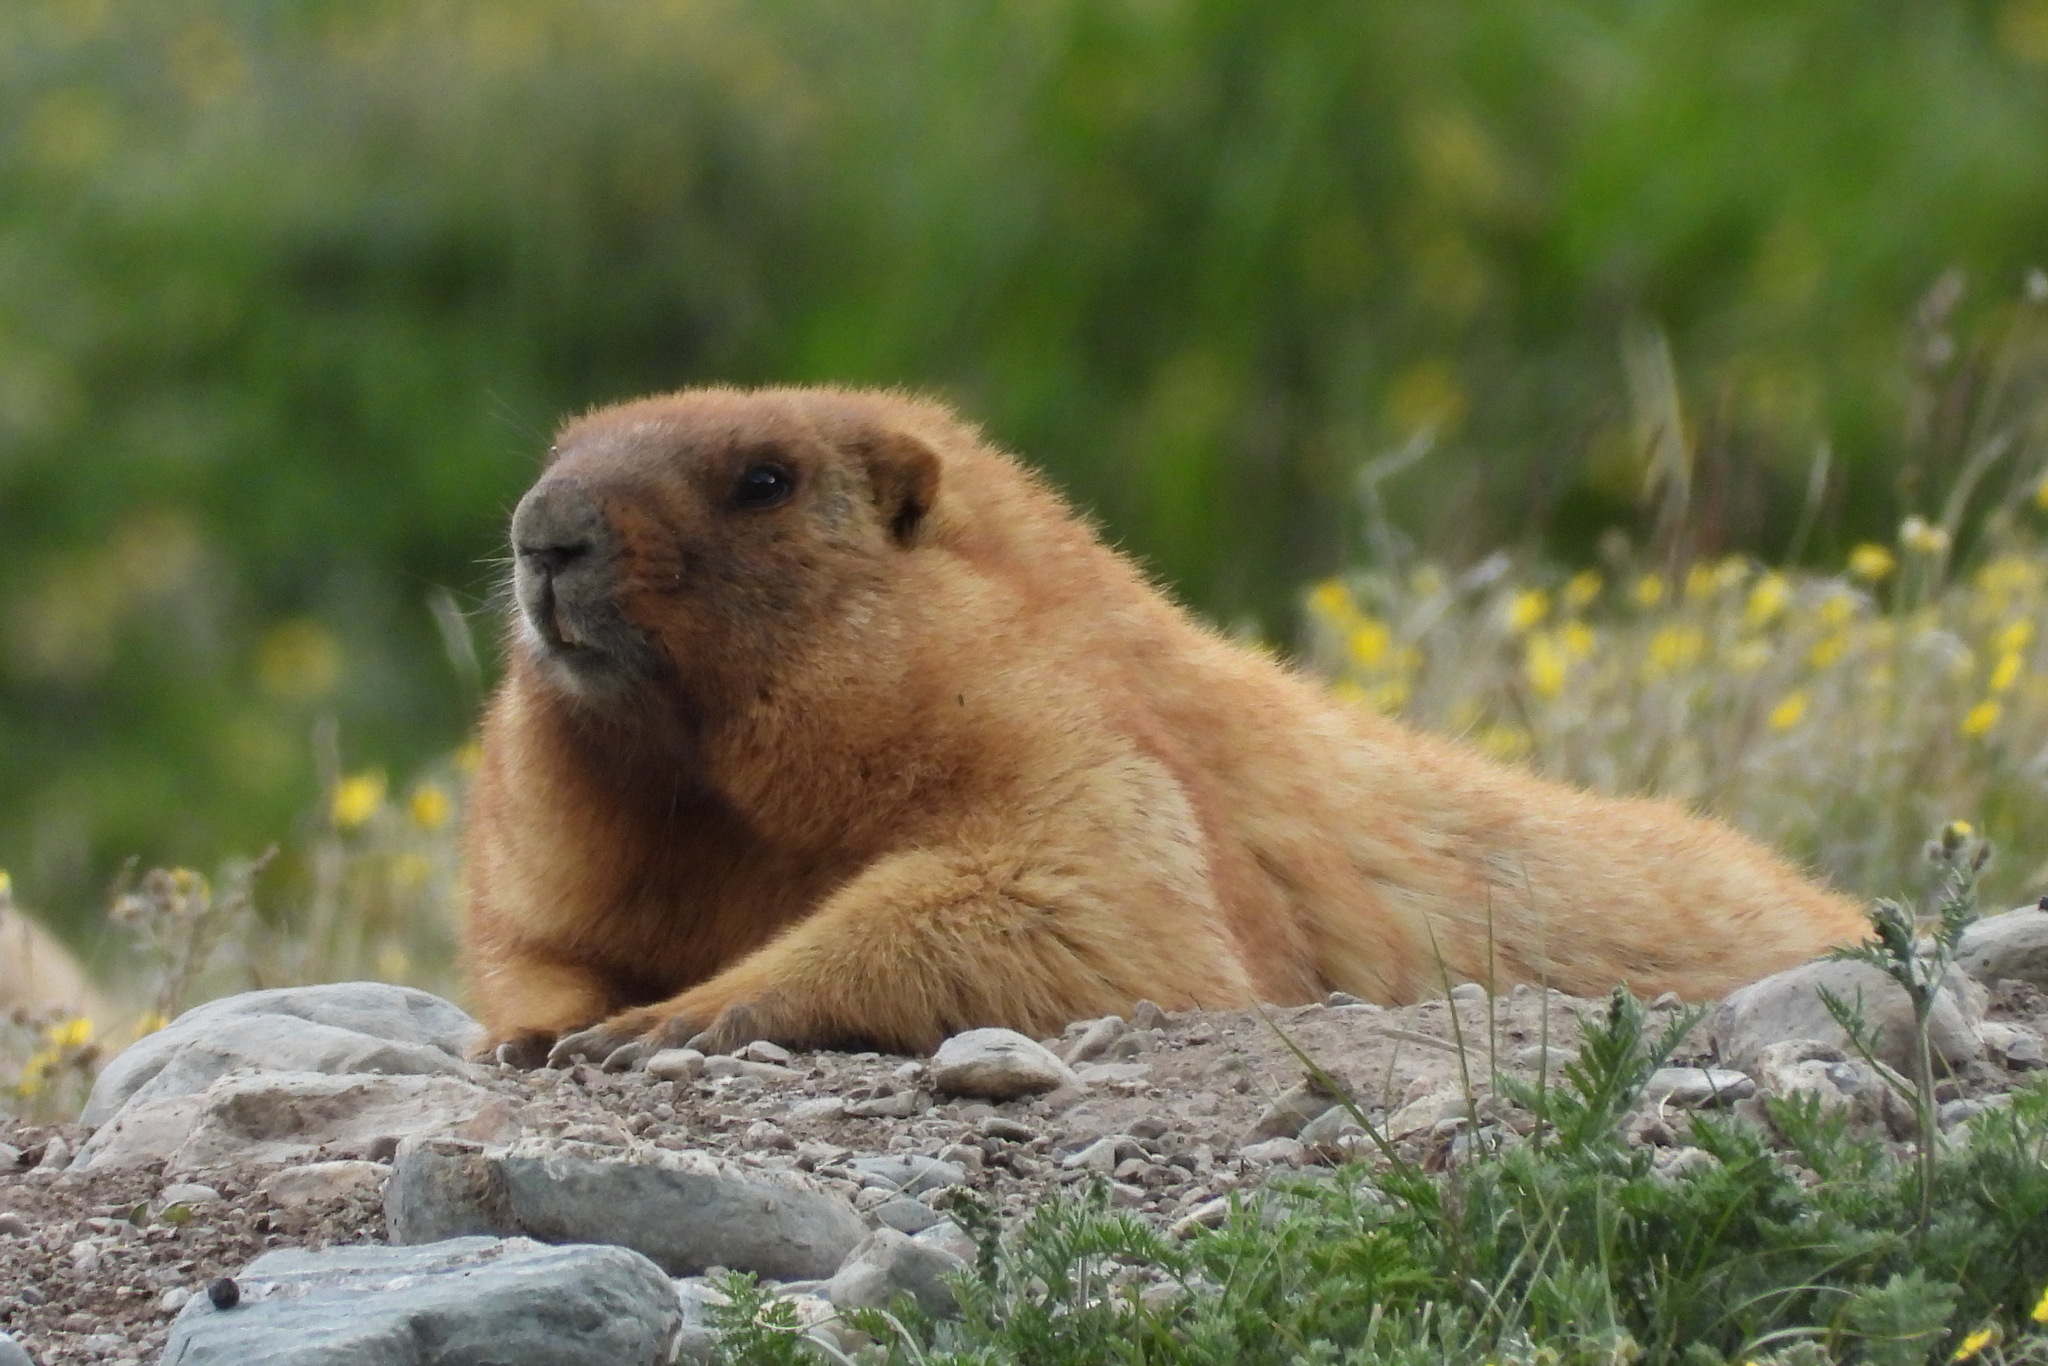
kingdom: Animalia
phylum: Chordata
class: Mammalia
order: Rodentia
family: Sciuridae
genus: Marmota
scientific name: Marmota baibacina
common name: Gray marmot
